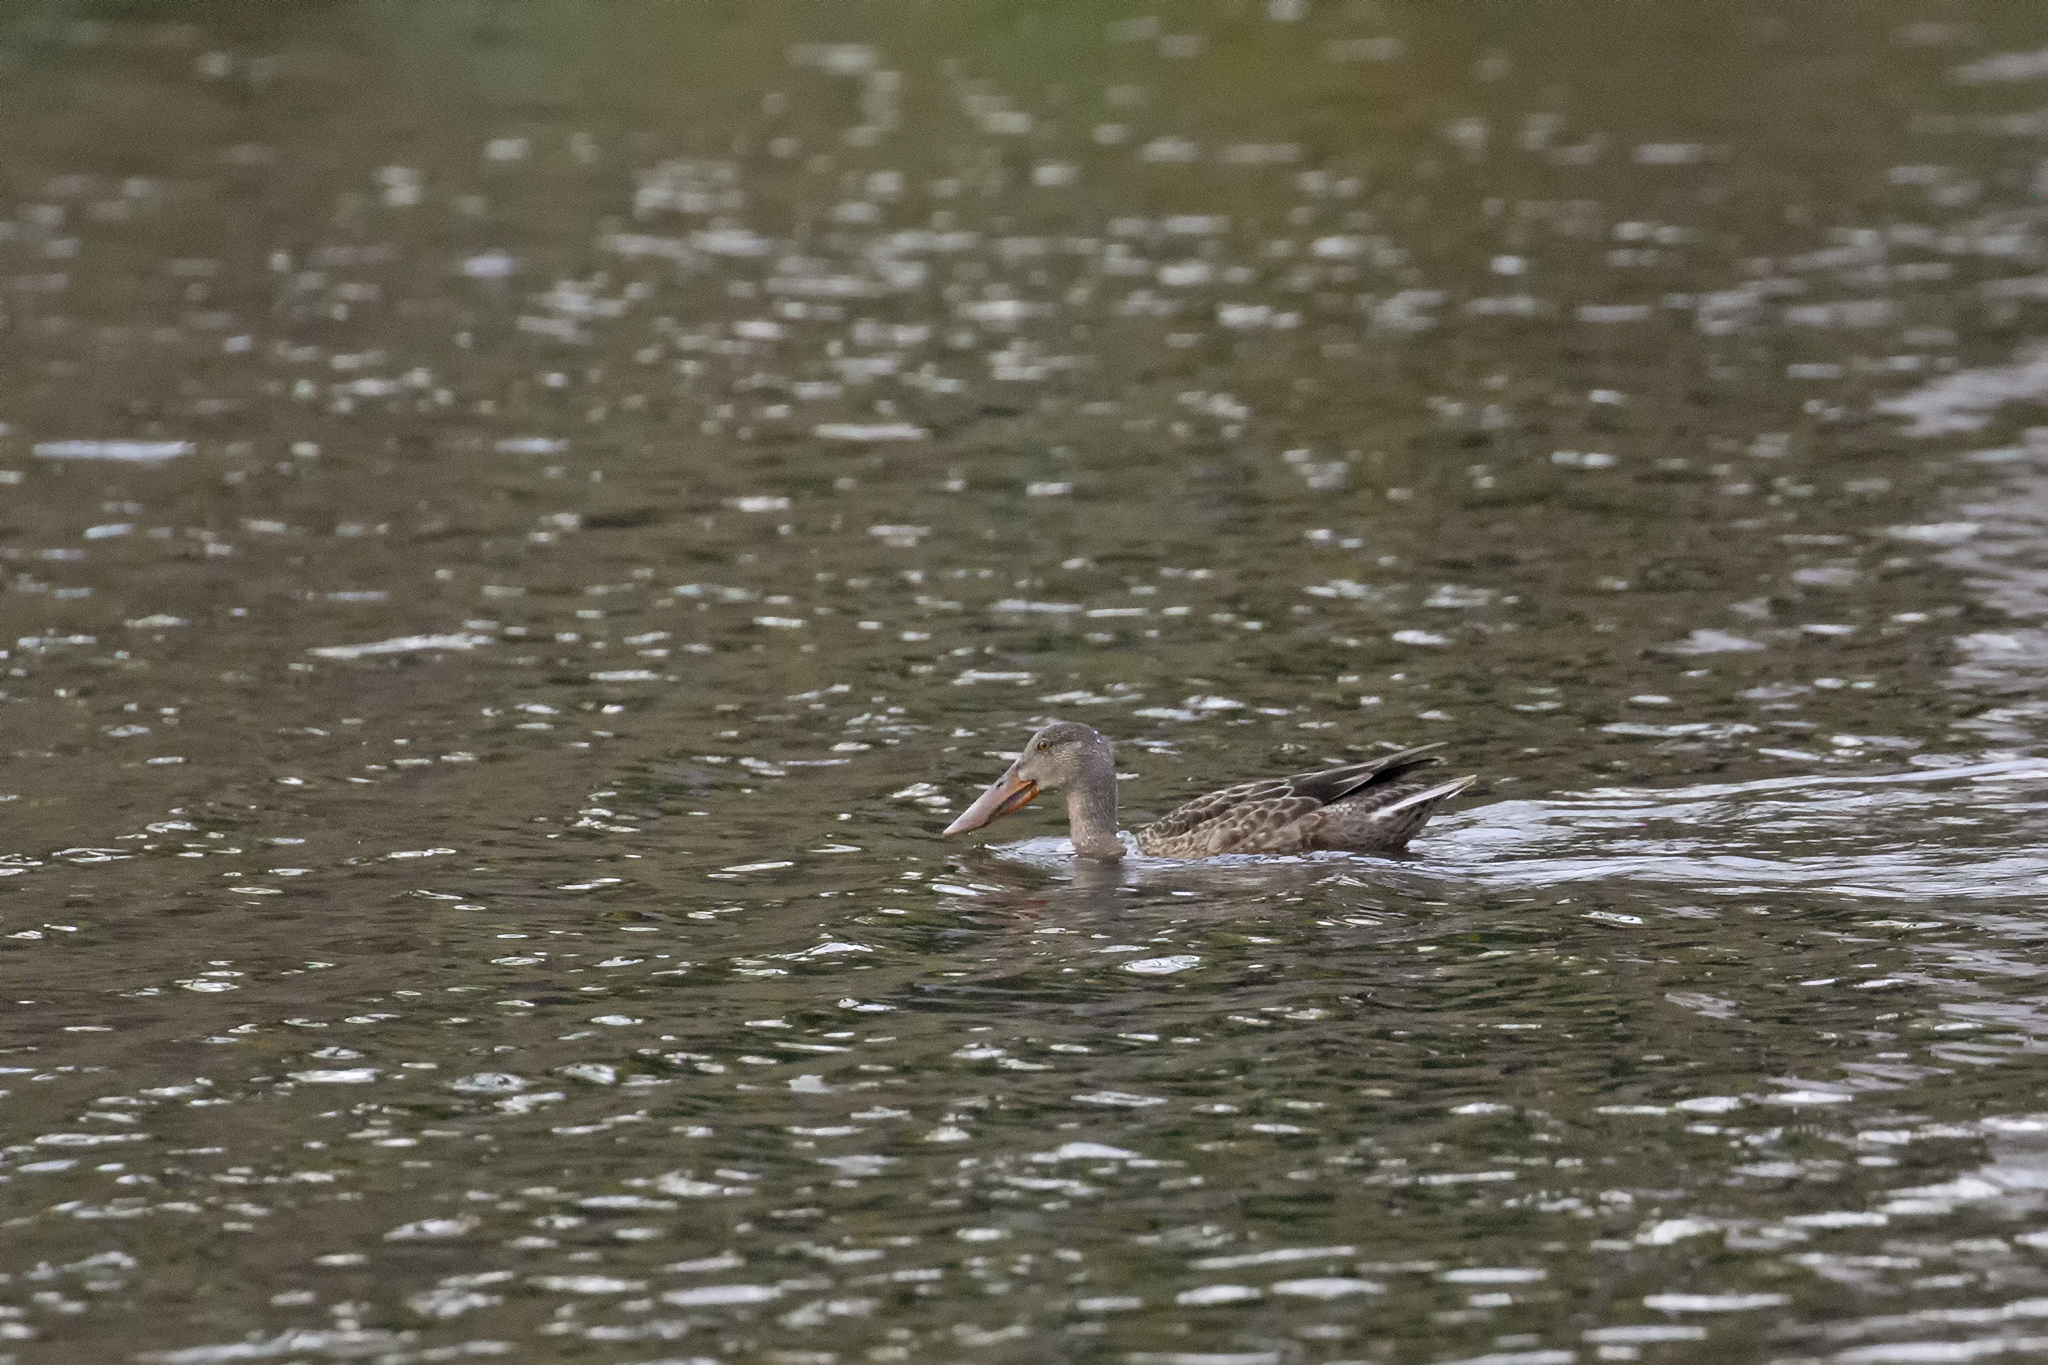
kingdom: Animalia
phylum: Chordata
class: Aves
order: Anseriformes
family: Anatidae
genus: Spatula
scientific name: Spatula clypeata
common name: Northern shoveler
